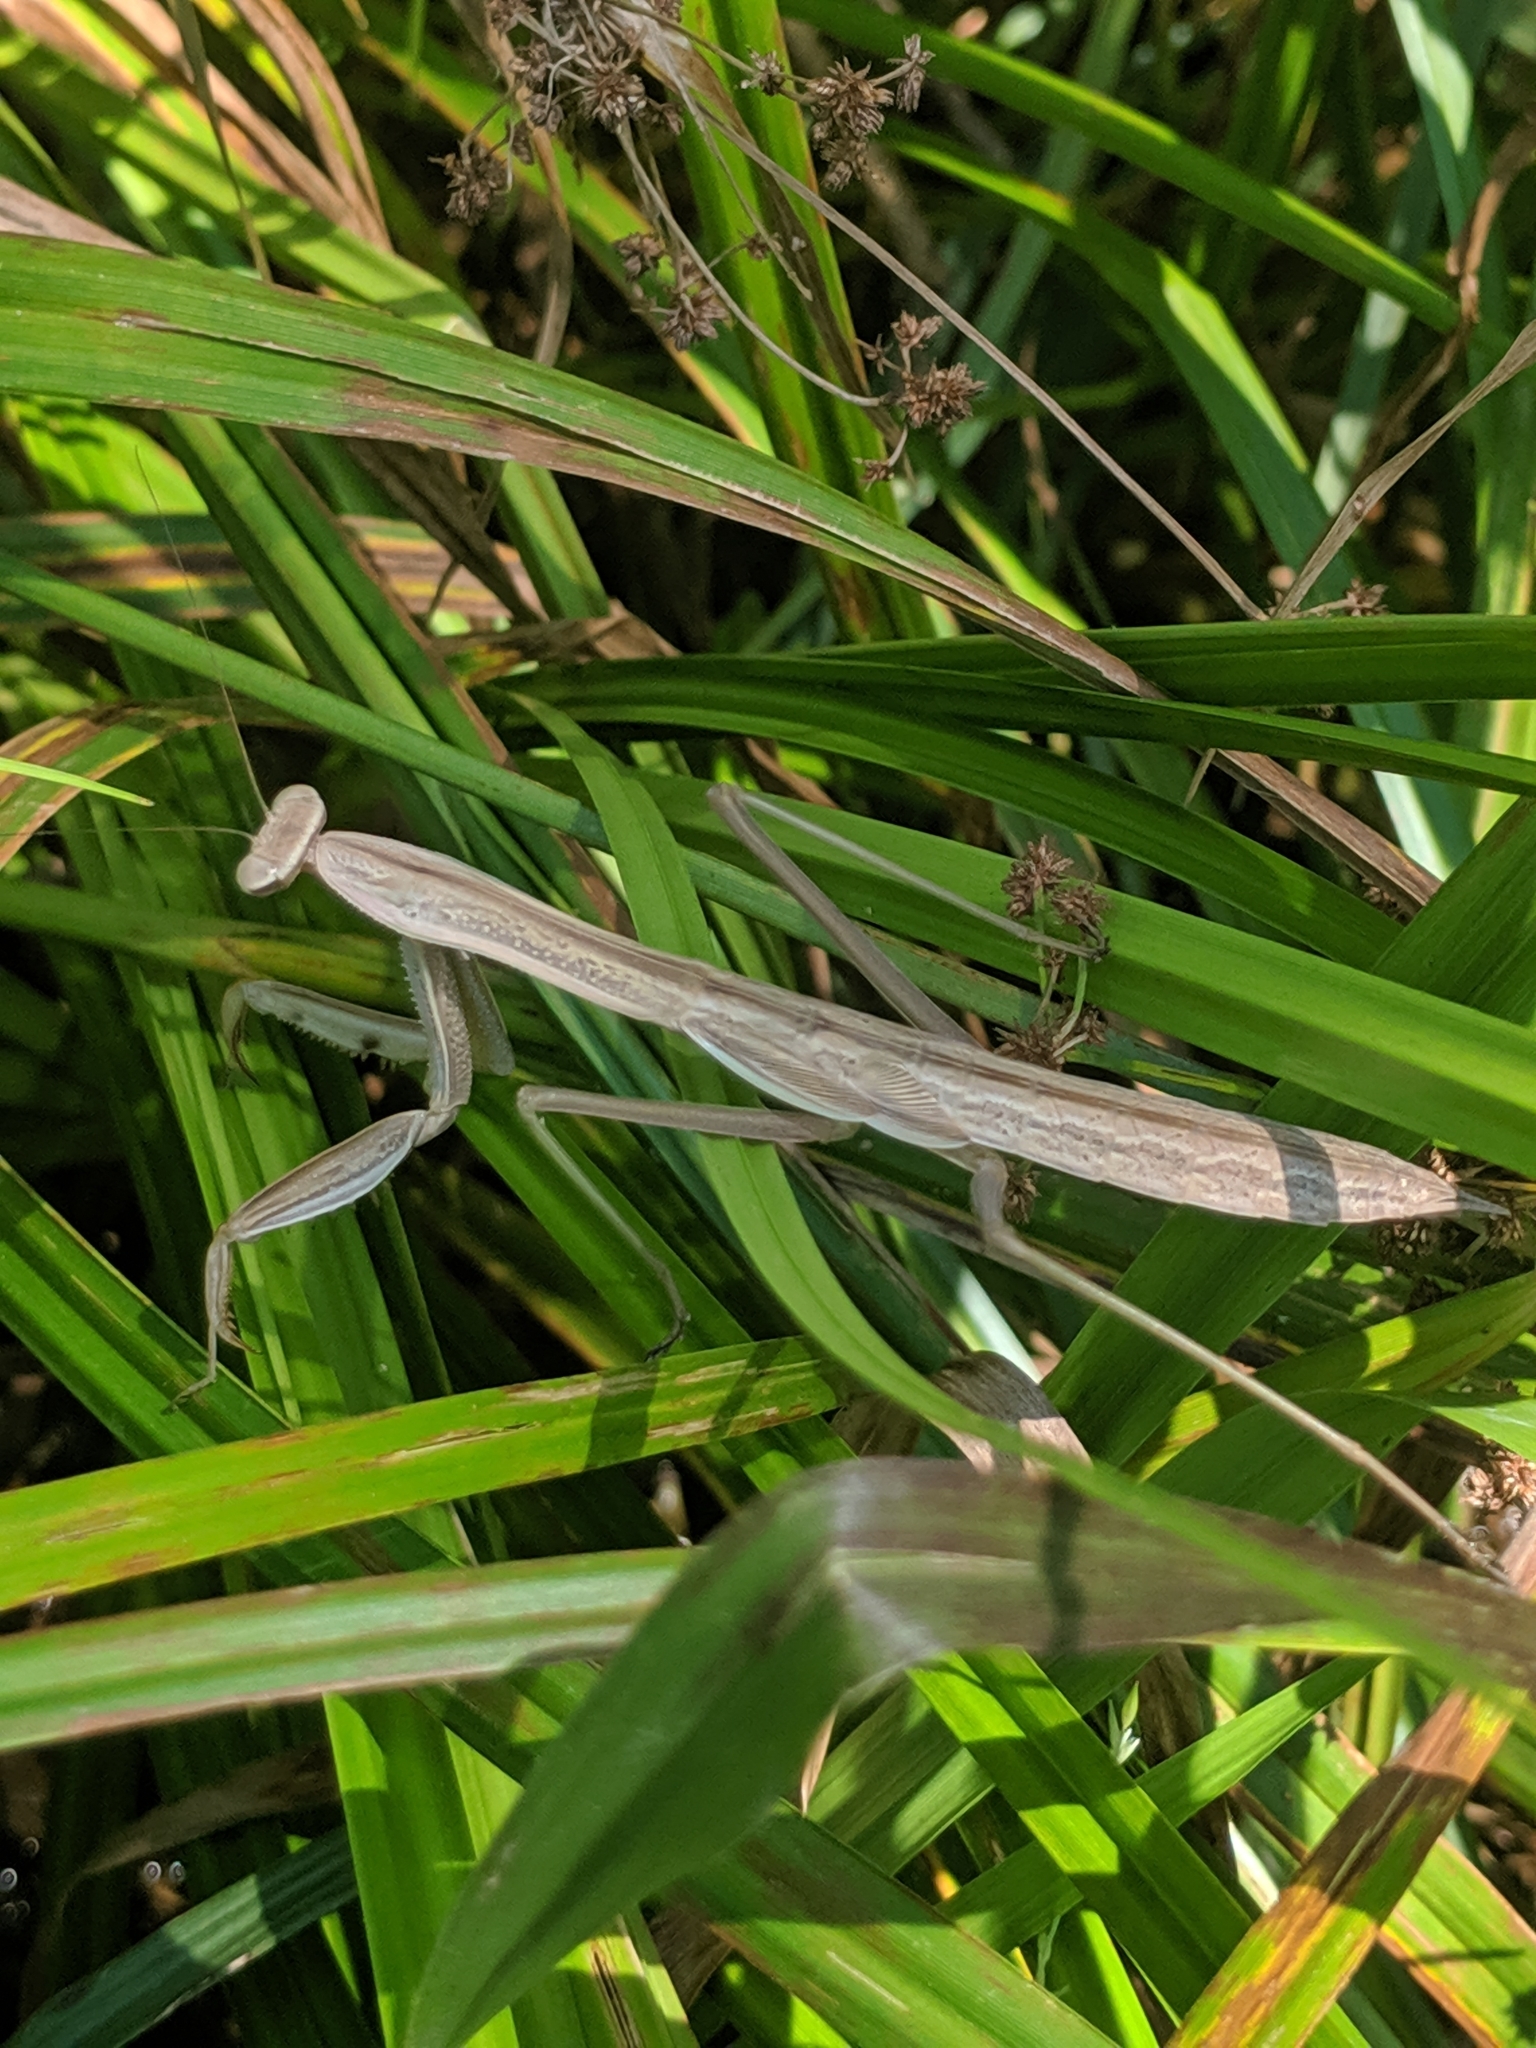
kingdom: Animalia
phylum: Arthropoda
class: Insecta
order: Mantodea
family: Mantidae
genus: Tenodera
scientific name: Tenodera sinensis
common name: Chinese mantis
